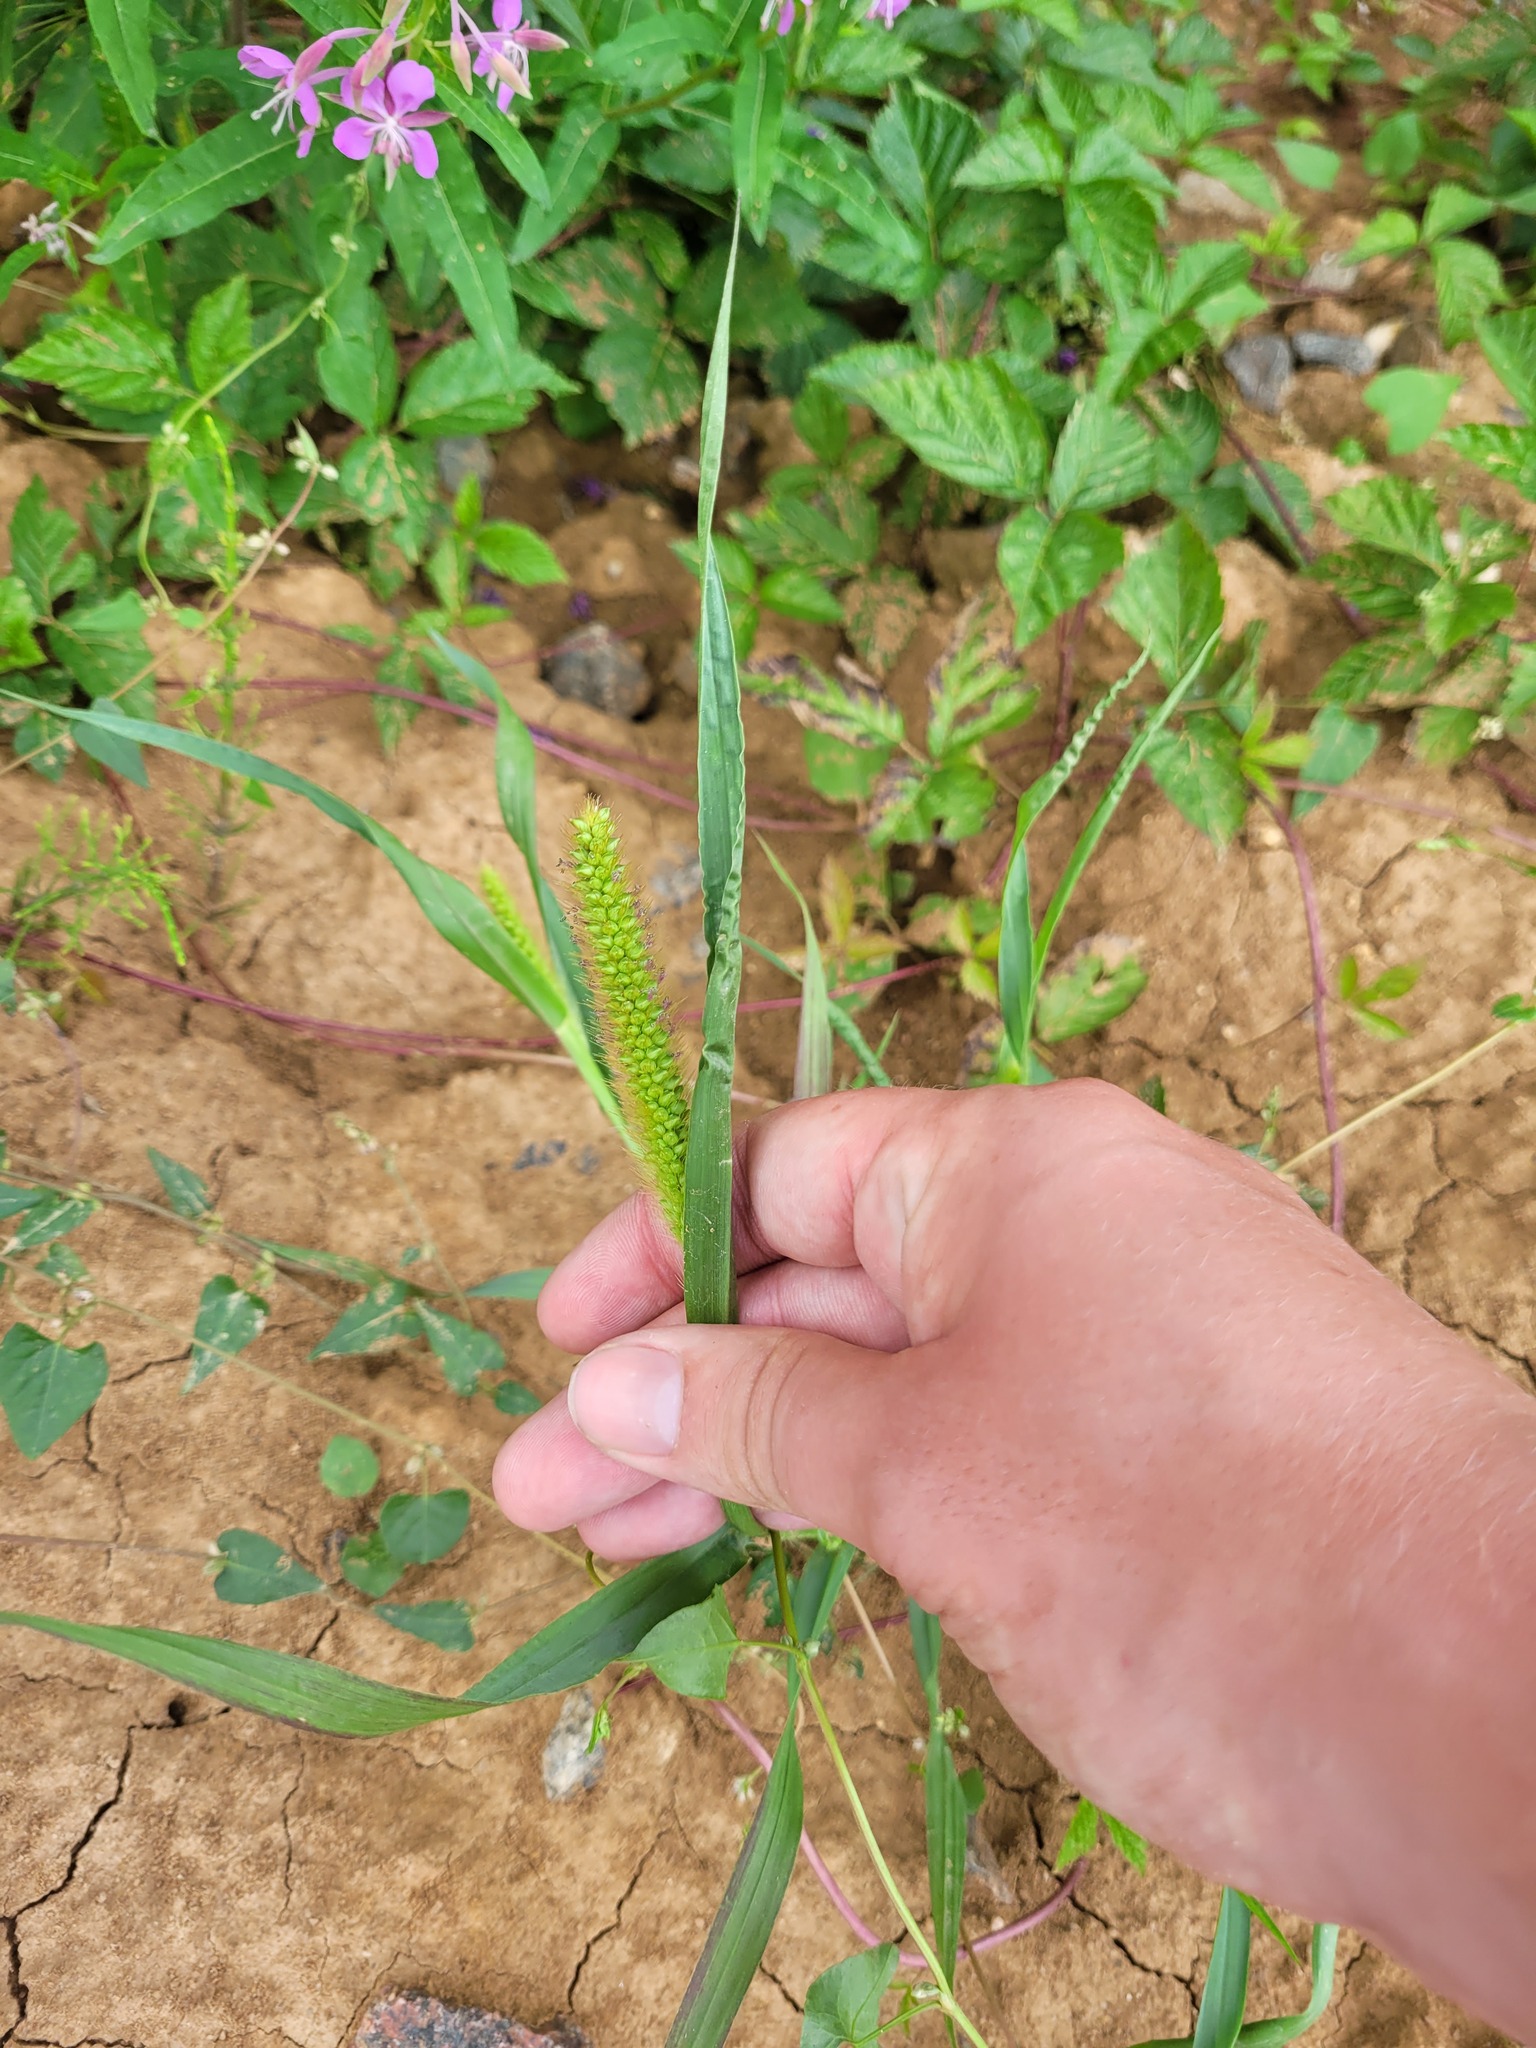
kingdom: Plantae
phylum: Tracheophyta
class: Liliopsida
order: Poales
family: Poaceae
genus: Setaria
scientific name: Setaria pumila
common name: Yellow bristle-grass
